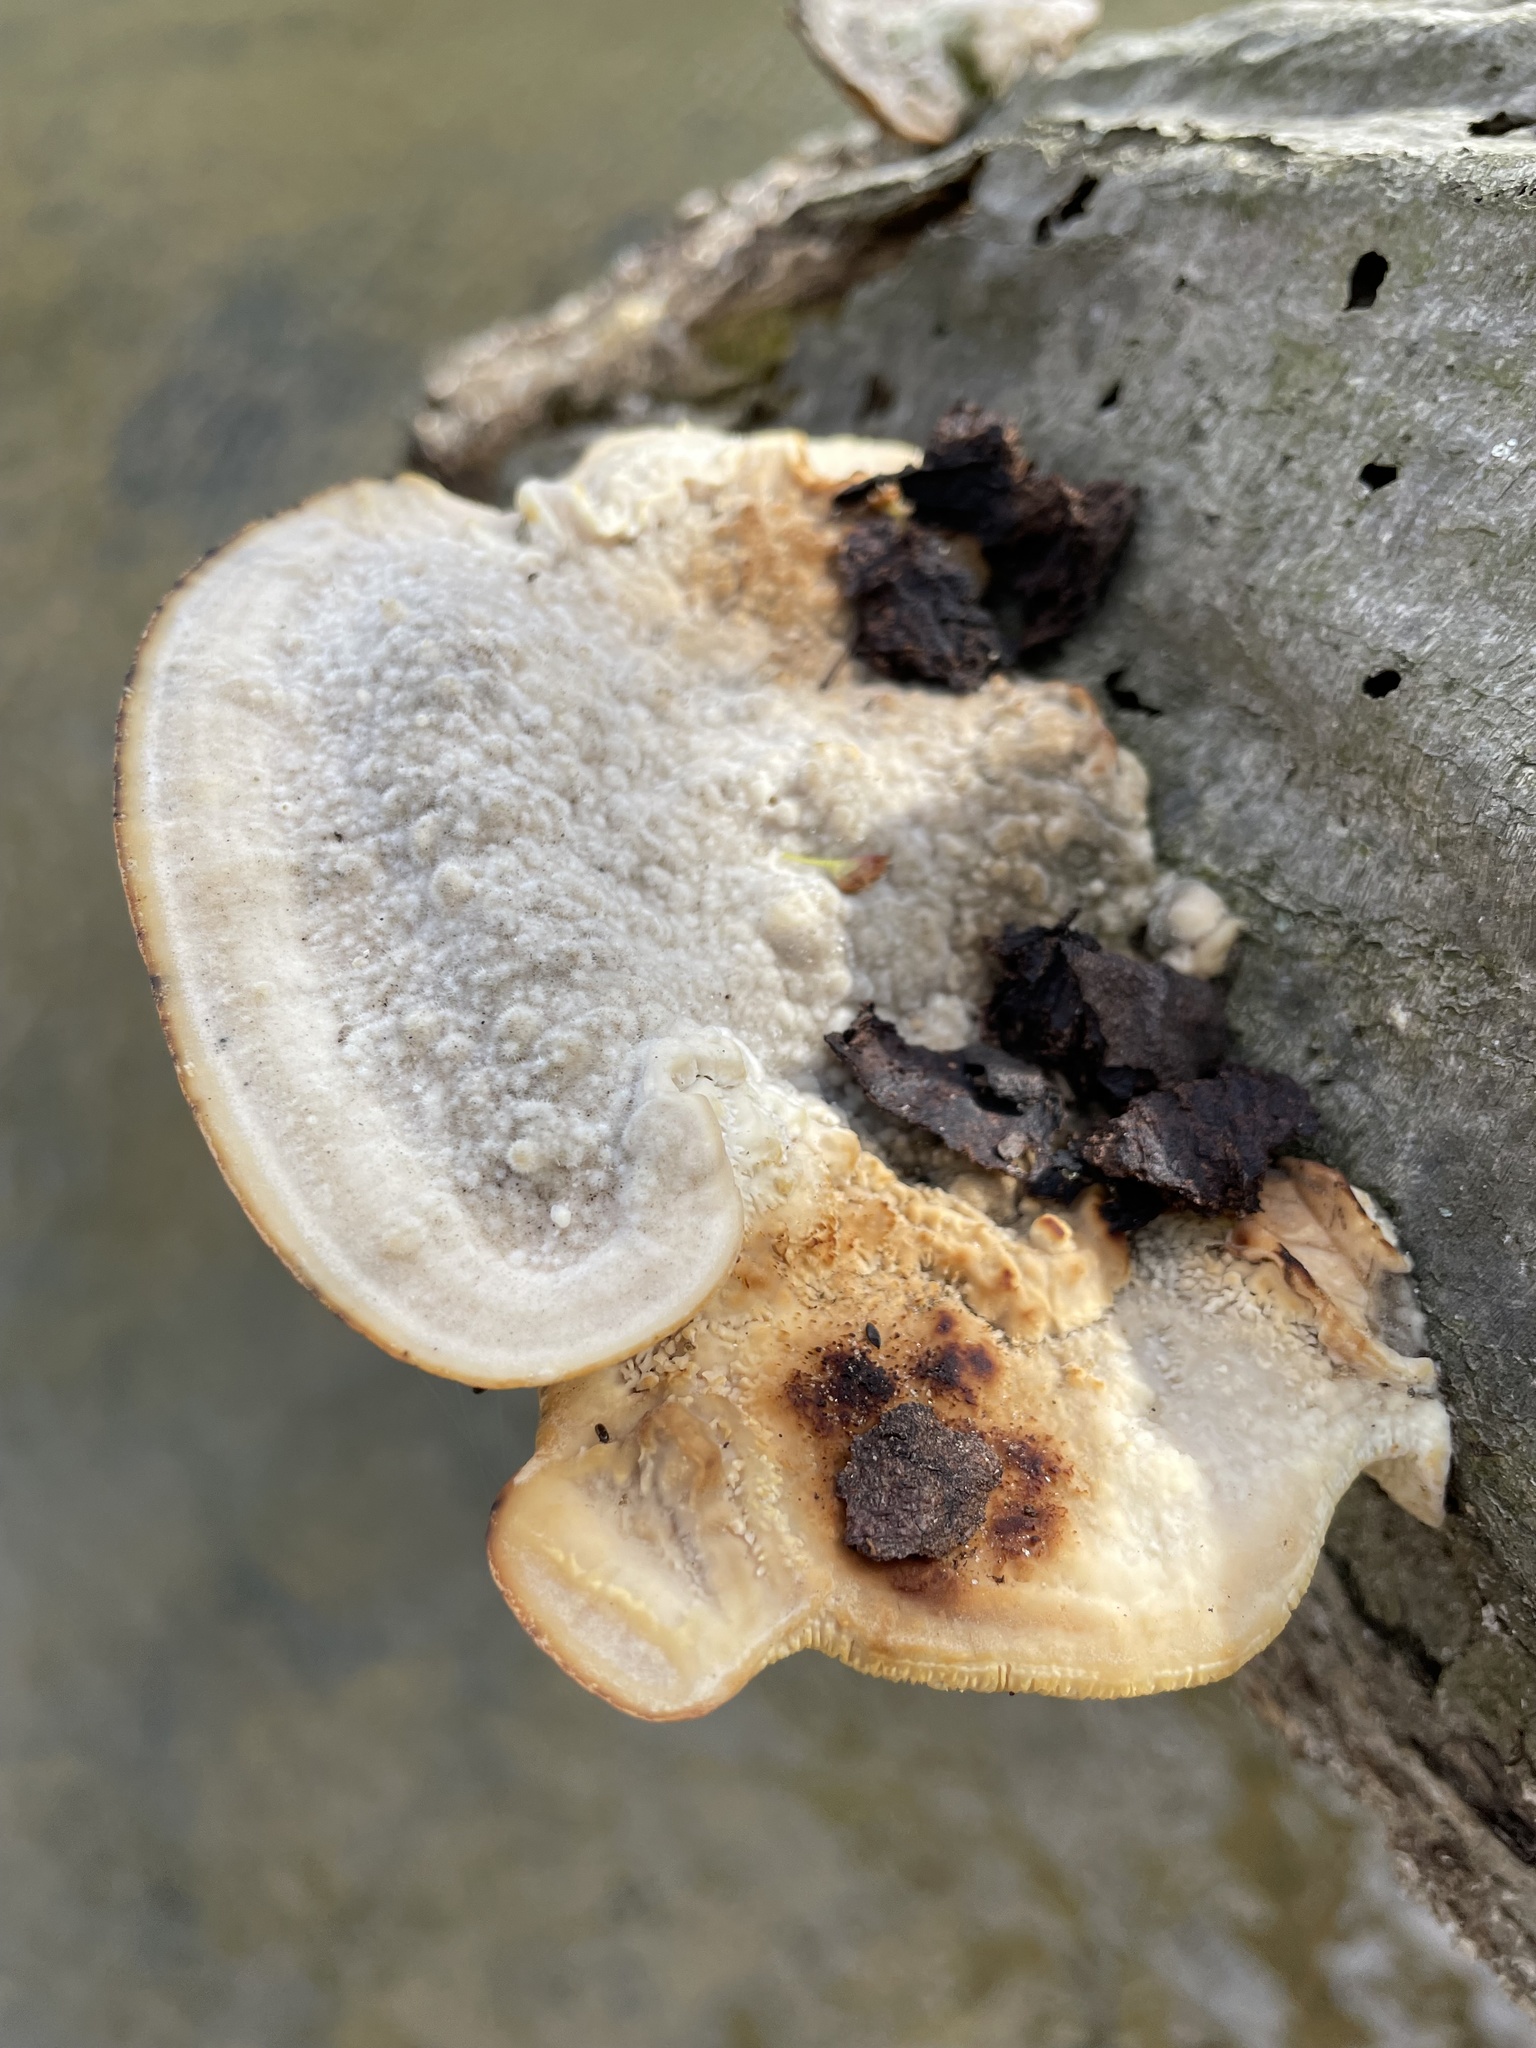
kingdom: Fungi
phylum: Basidiomycota
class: Agaricomycetes
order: Polyporales
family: Polyporaceae
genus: Trametes
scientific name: Trametes gibbosa
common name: Lumpy bracket
